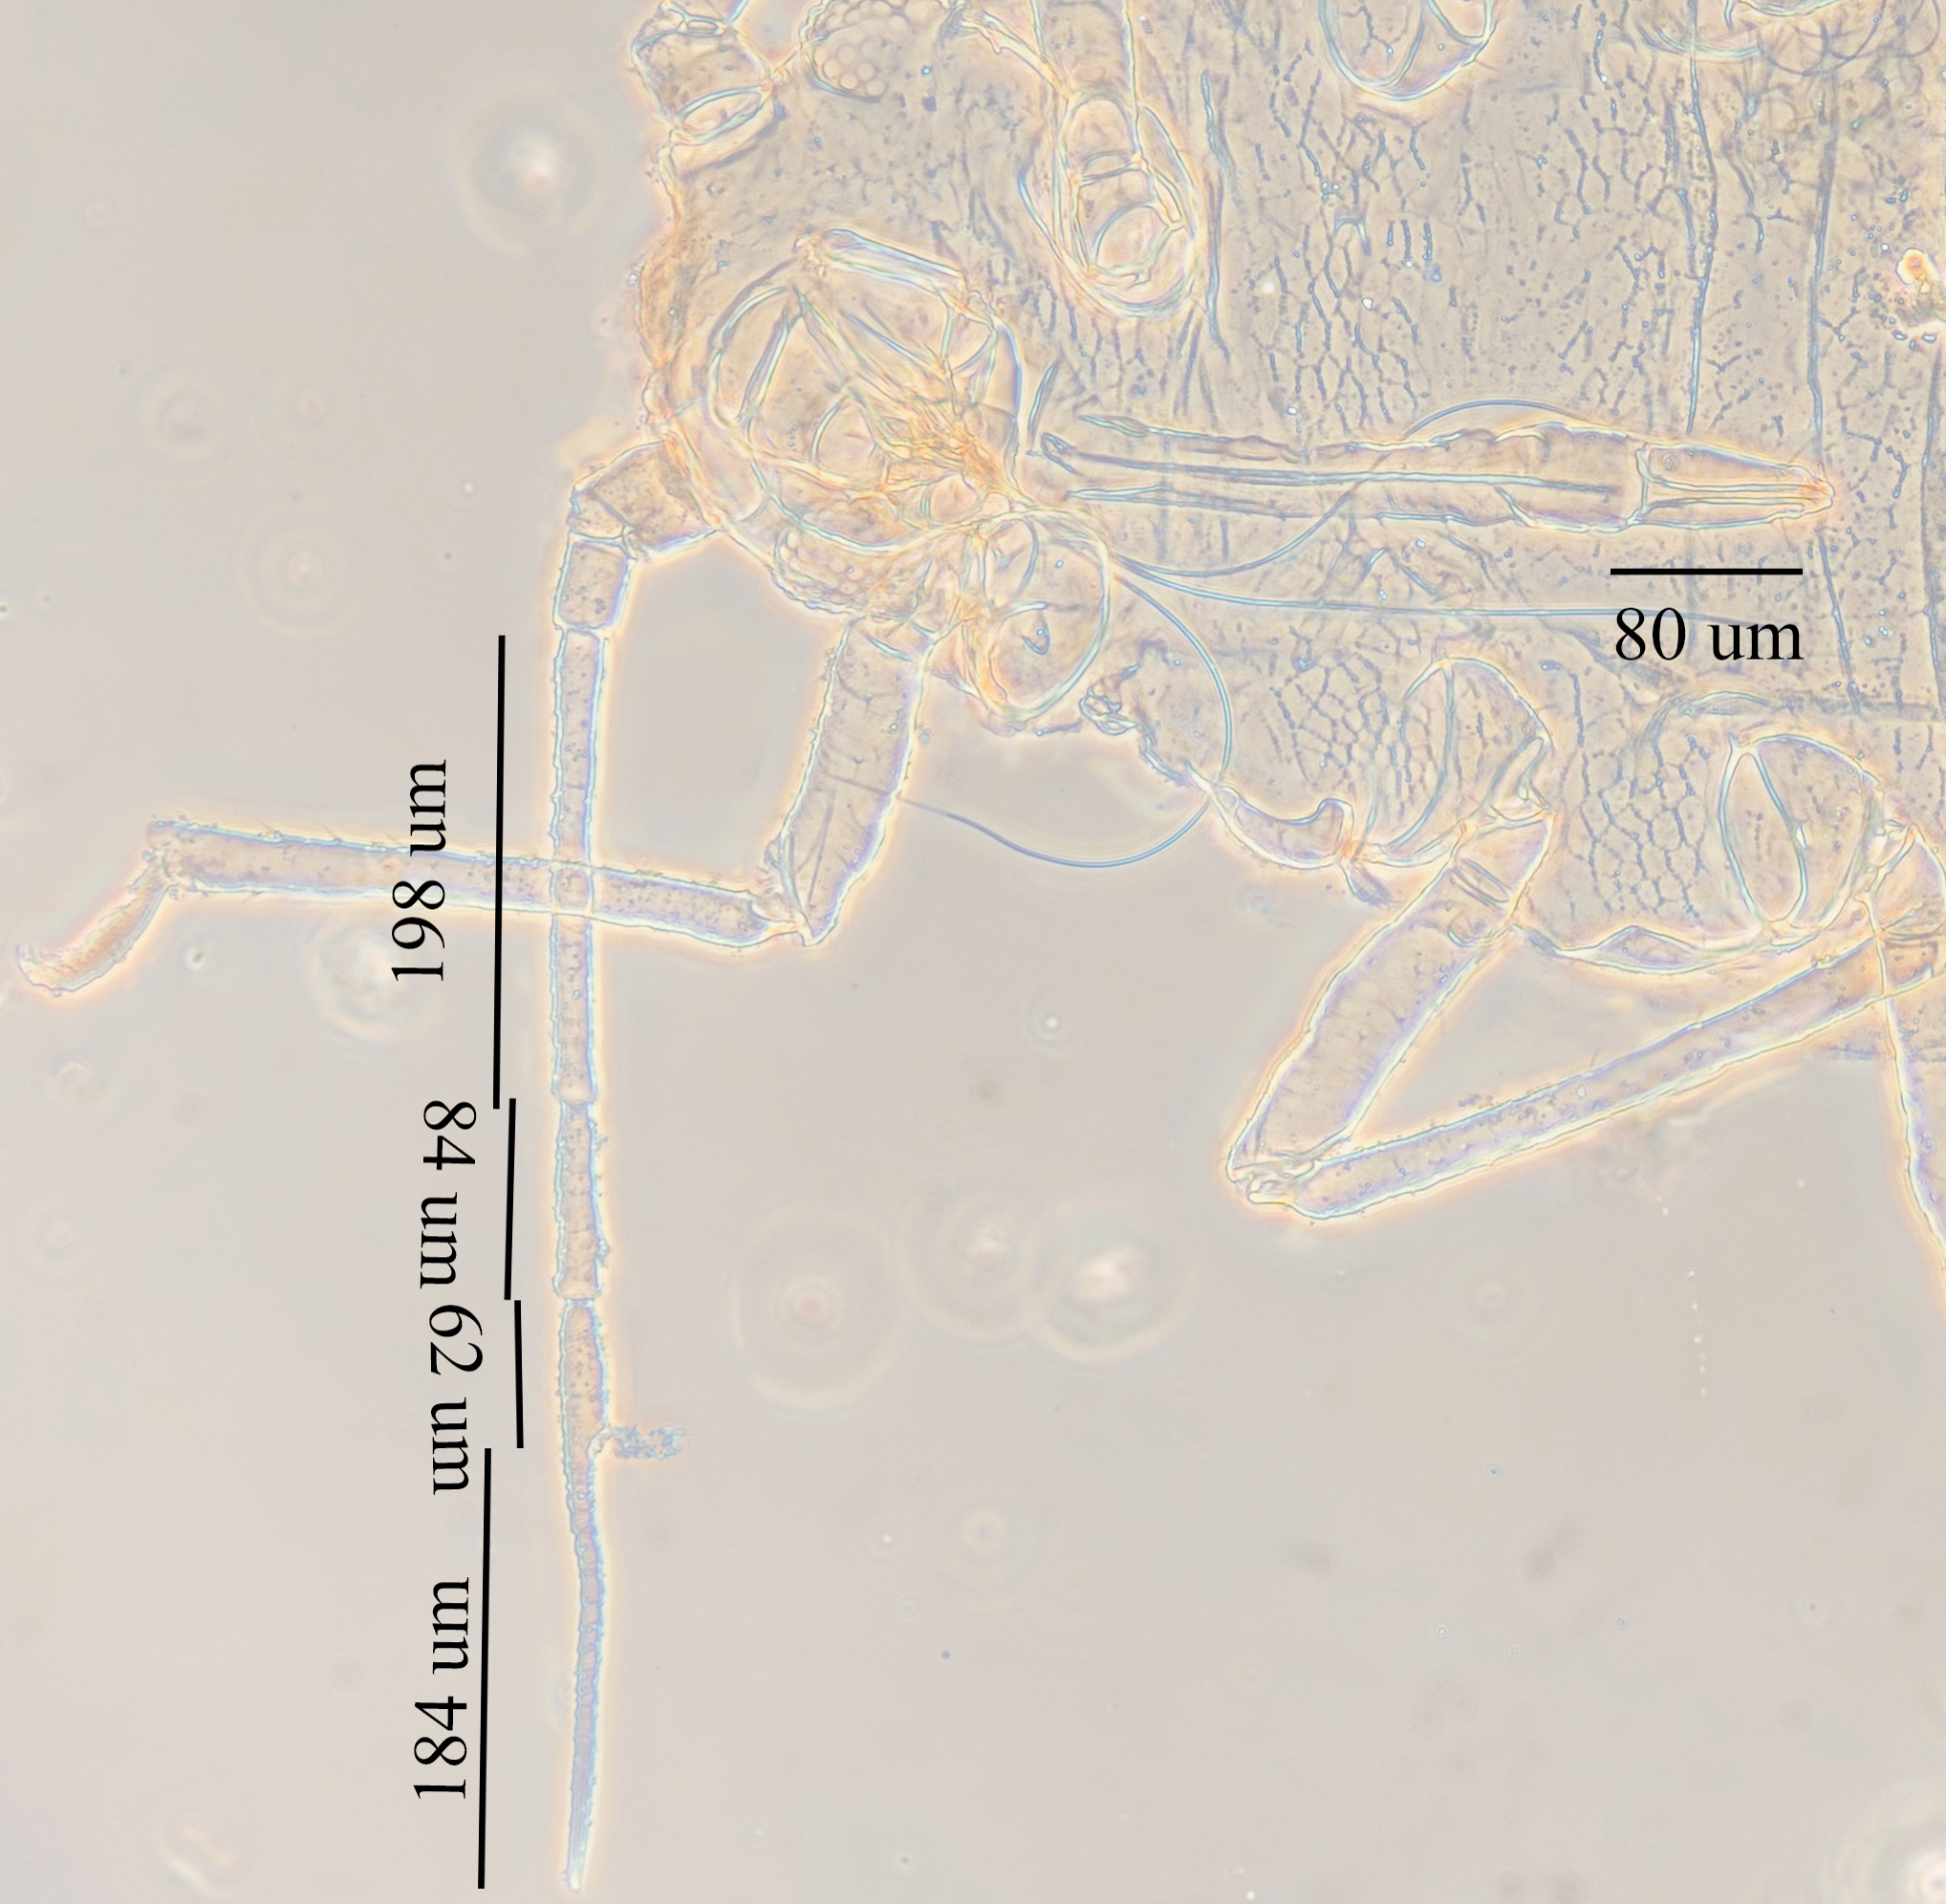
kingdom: Animalia
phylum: Arthropoda
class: Insecta
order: Hemiptera
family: Aphididae
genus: Aphis
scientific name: Aphis gossypii
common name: Melon aphid
